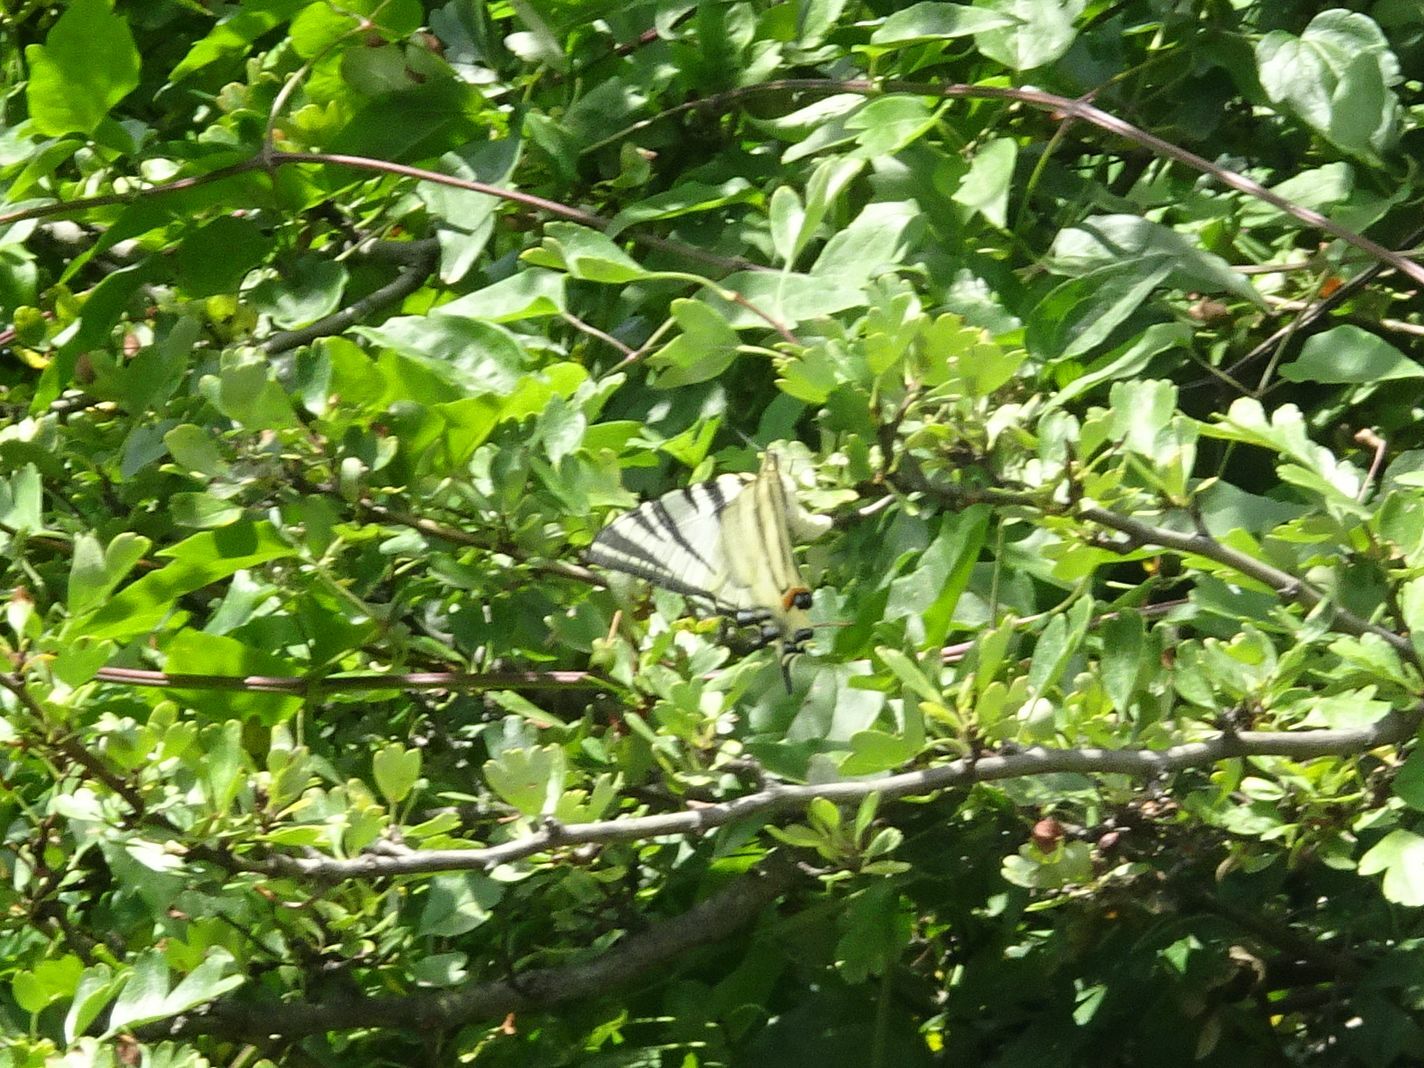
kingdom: Animalia
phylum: Arthropoda
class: Insecta
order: Lepidoptera
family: Papilionidae
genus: Iphiclides
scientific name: Iphiclides podalirius
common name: Scarce swallowtail
